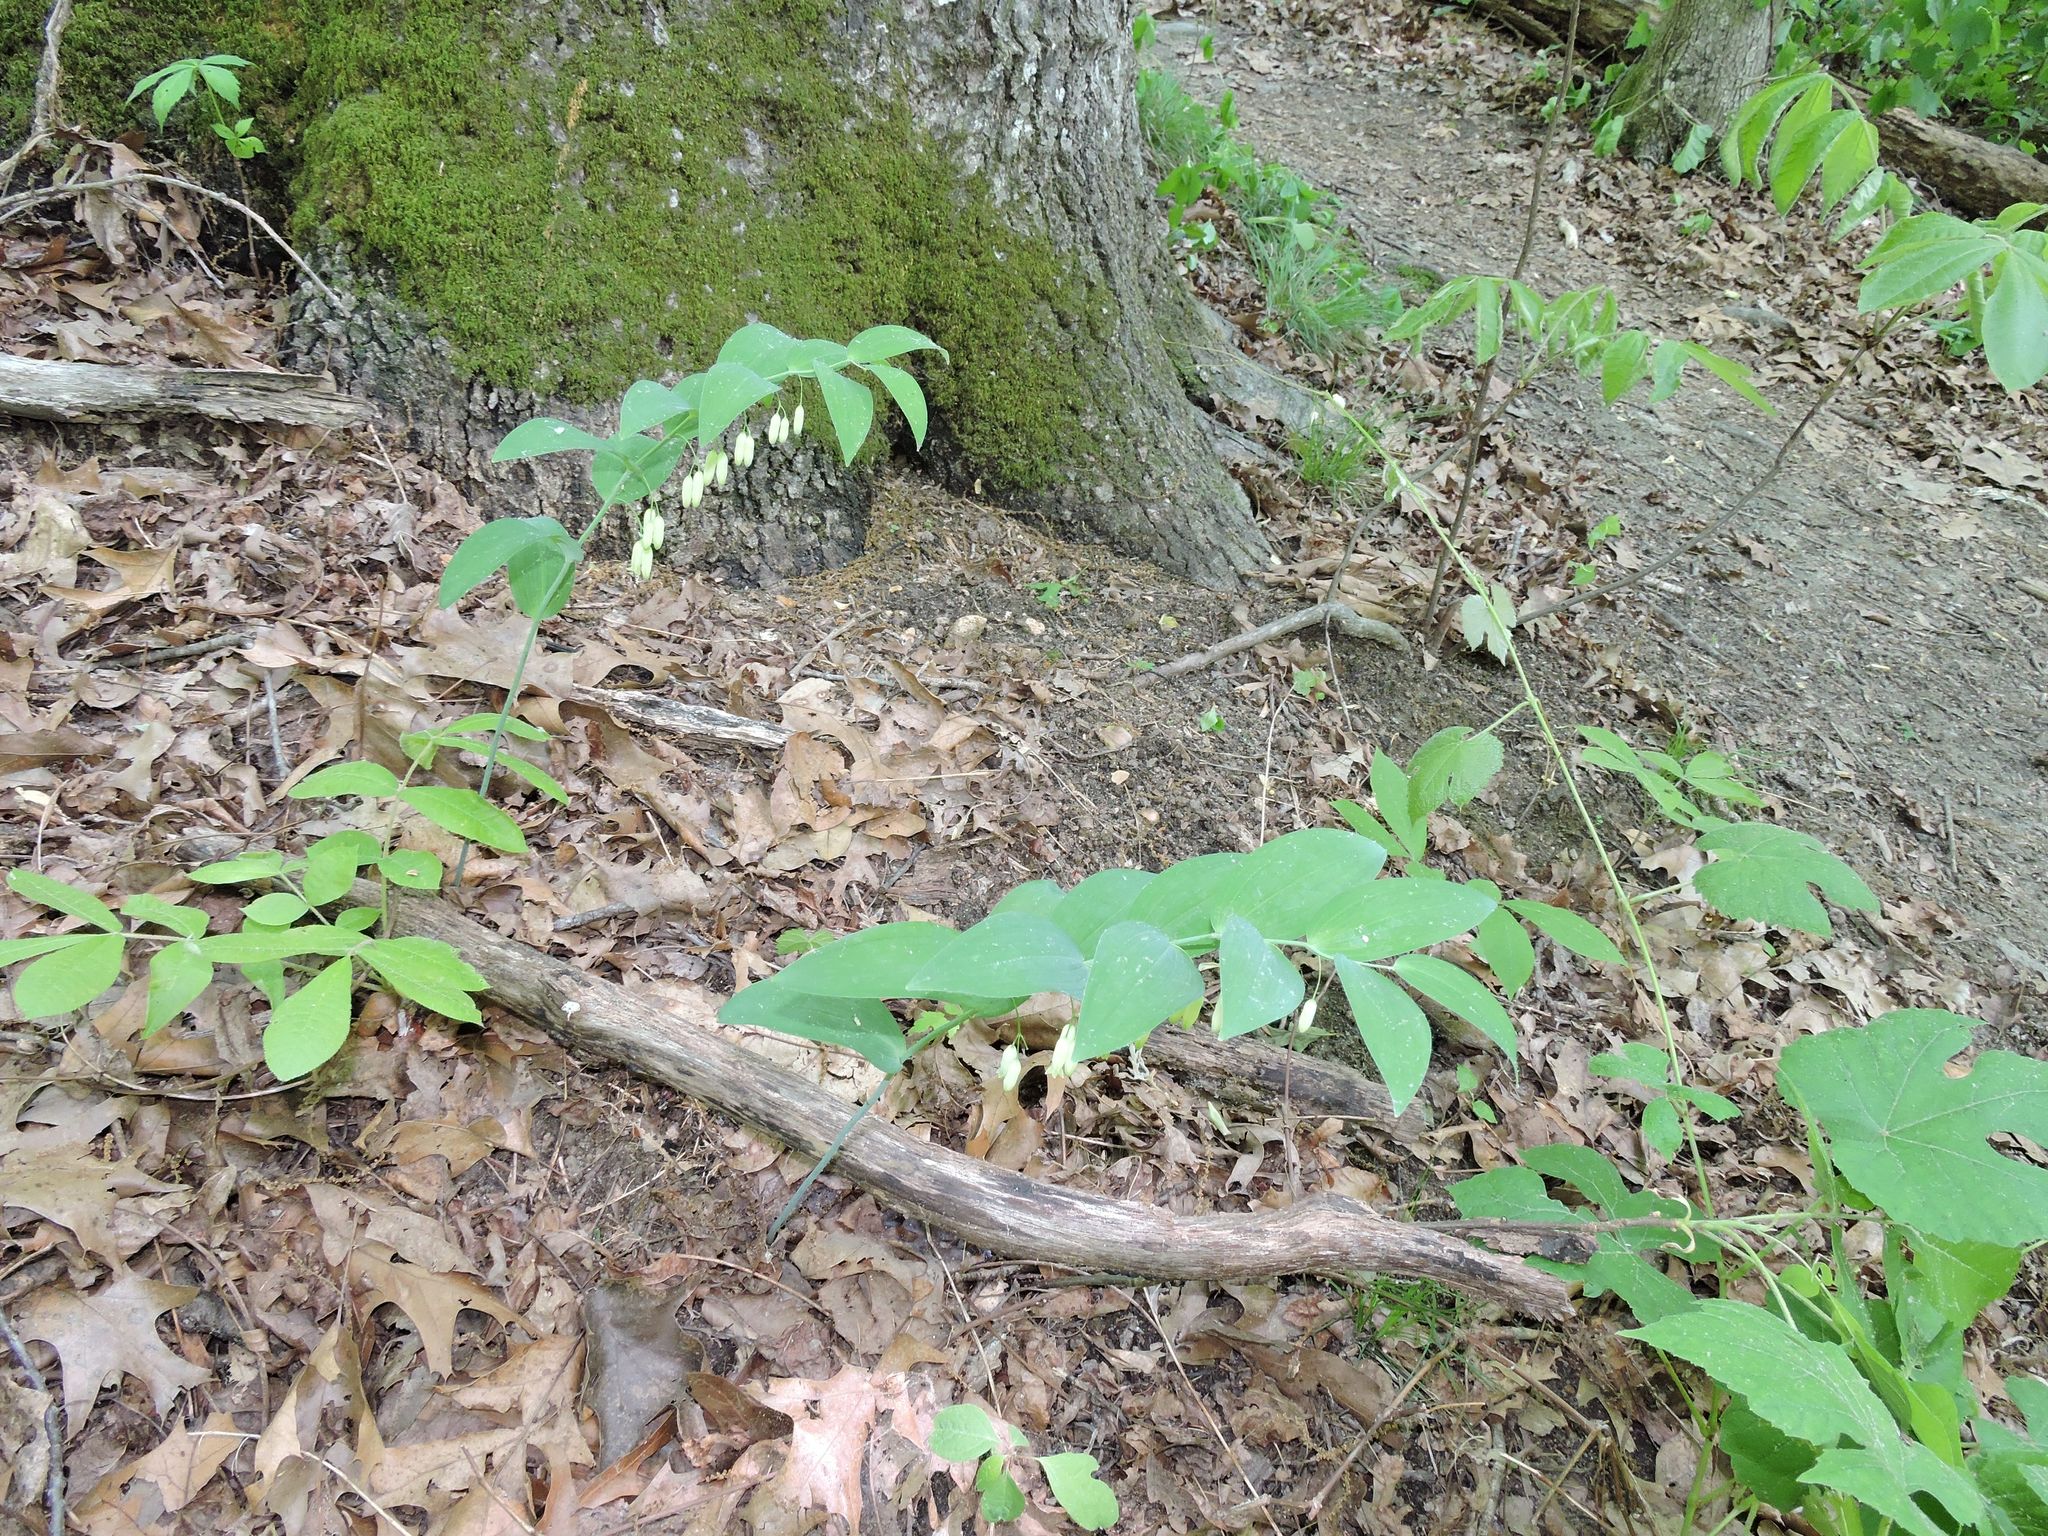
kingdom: Plantae
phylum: Tracheophyta
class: Liliopsida
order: Asparagales
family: Asparagaceae
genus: Polygonatum
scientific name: Polygonatum biflorum
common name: American solomon's-seal
